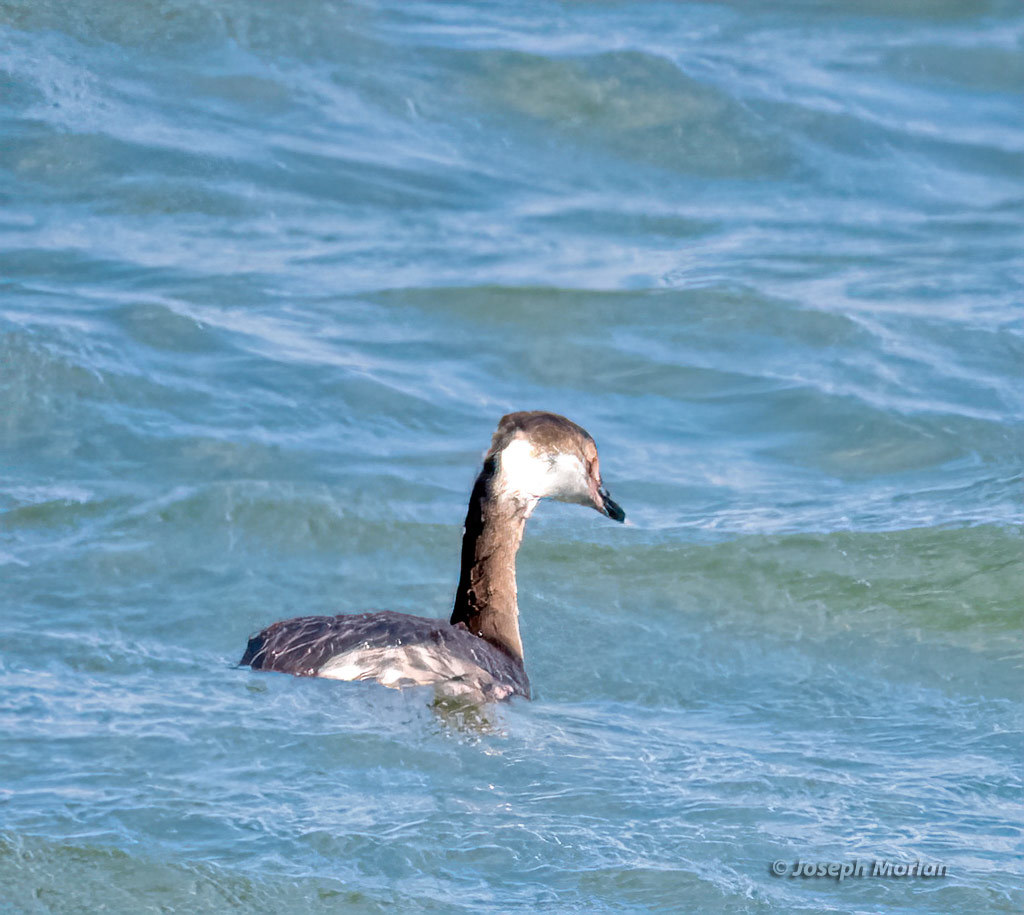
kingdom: Animalia
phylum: Chordata
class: Aves
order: Podicipediformes
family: Podicipedidae
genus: Podiceps
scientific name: Podiceps auritus
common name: Horned grebe
